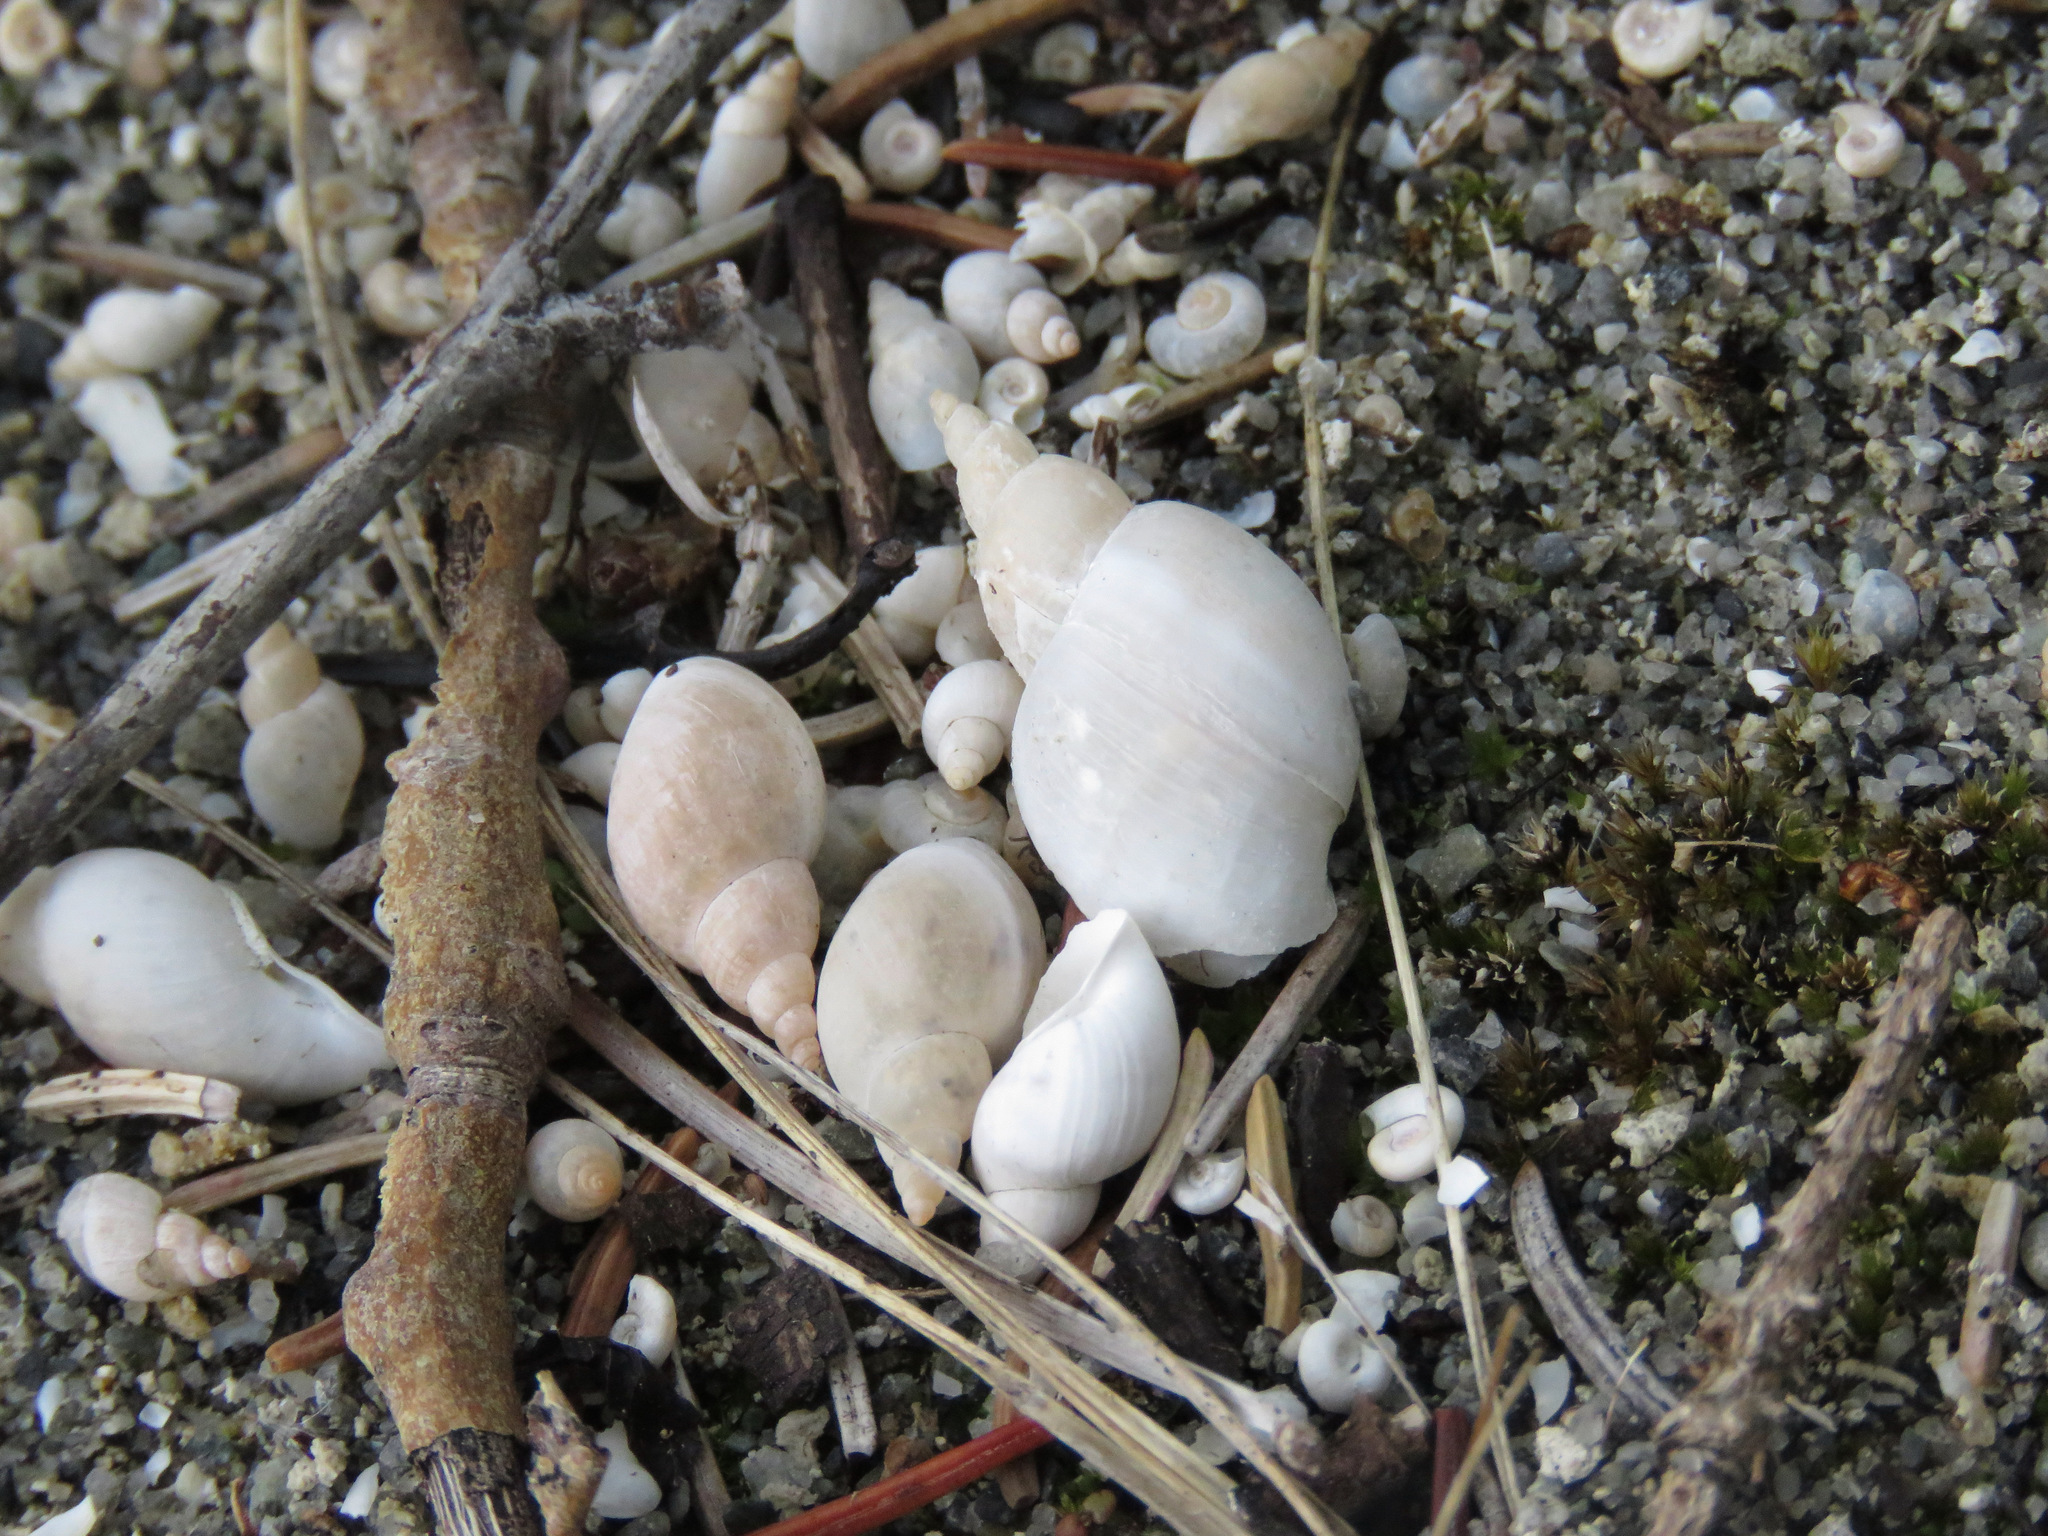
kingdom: Animalia
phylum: Mollusca
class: Gastropoda
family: Lymnaeidae
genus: Lymnaea
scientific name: Lymnaea stagnalis
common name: Great pond snail
